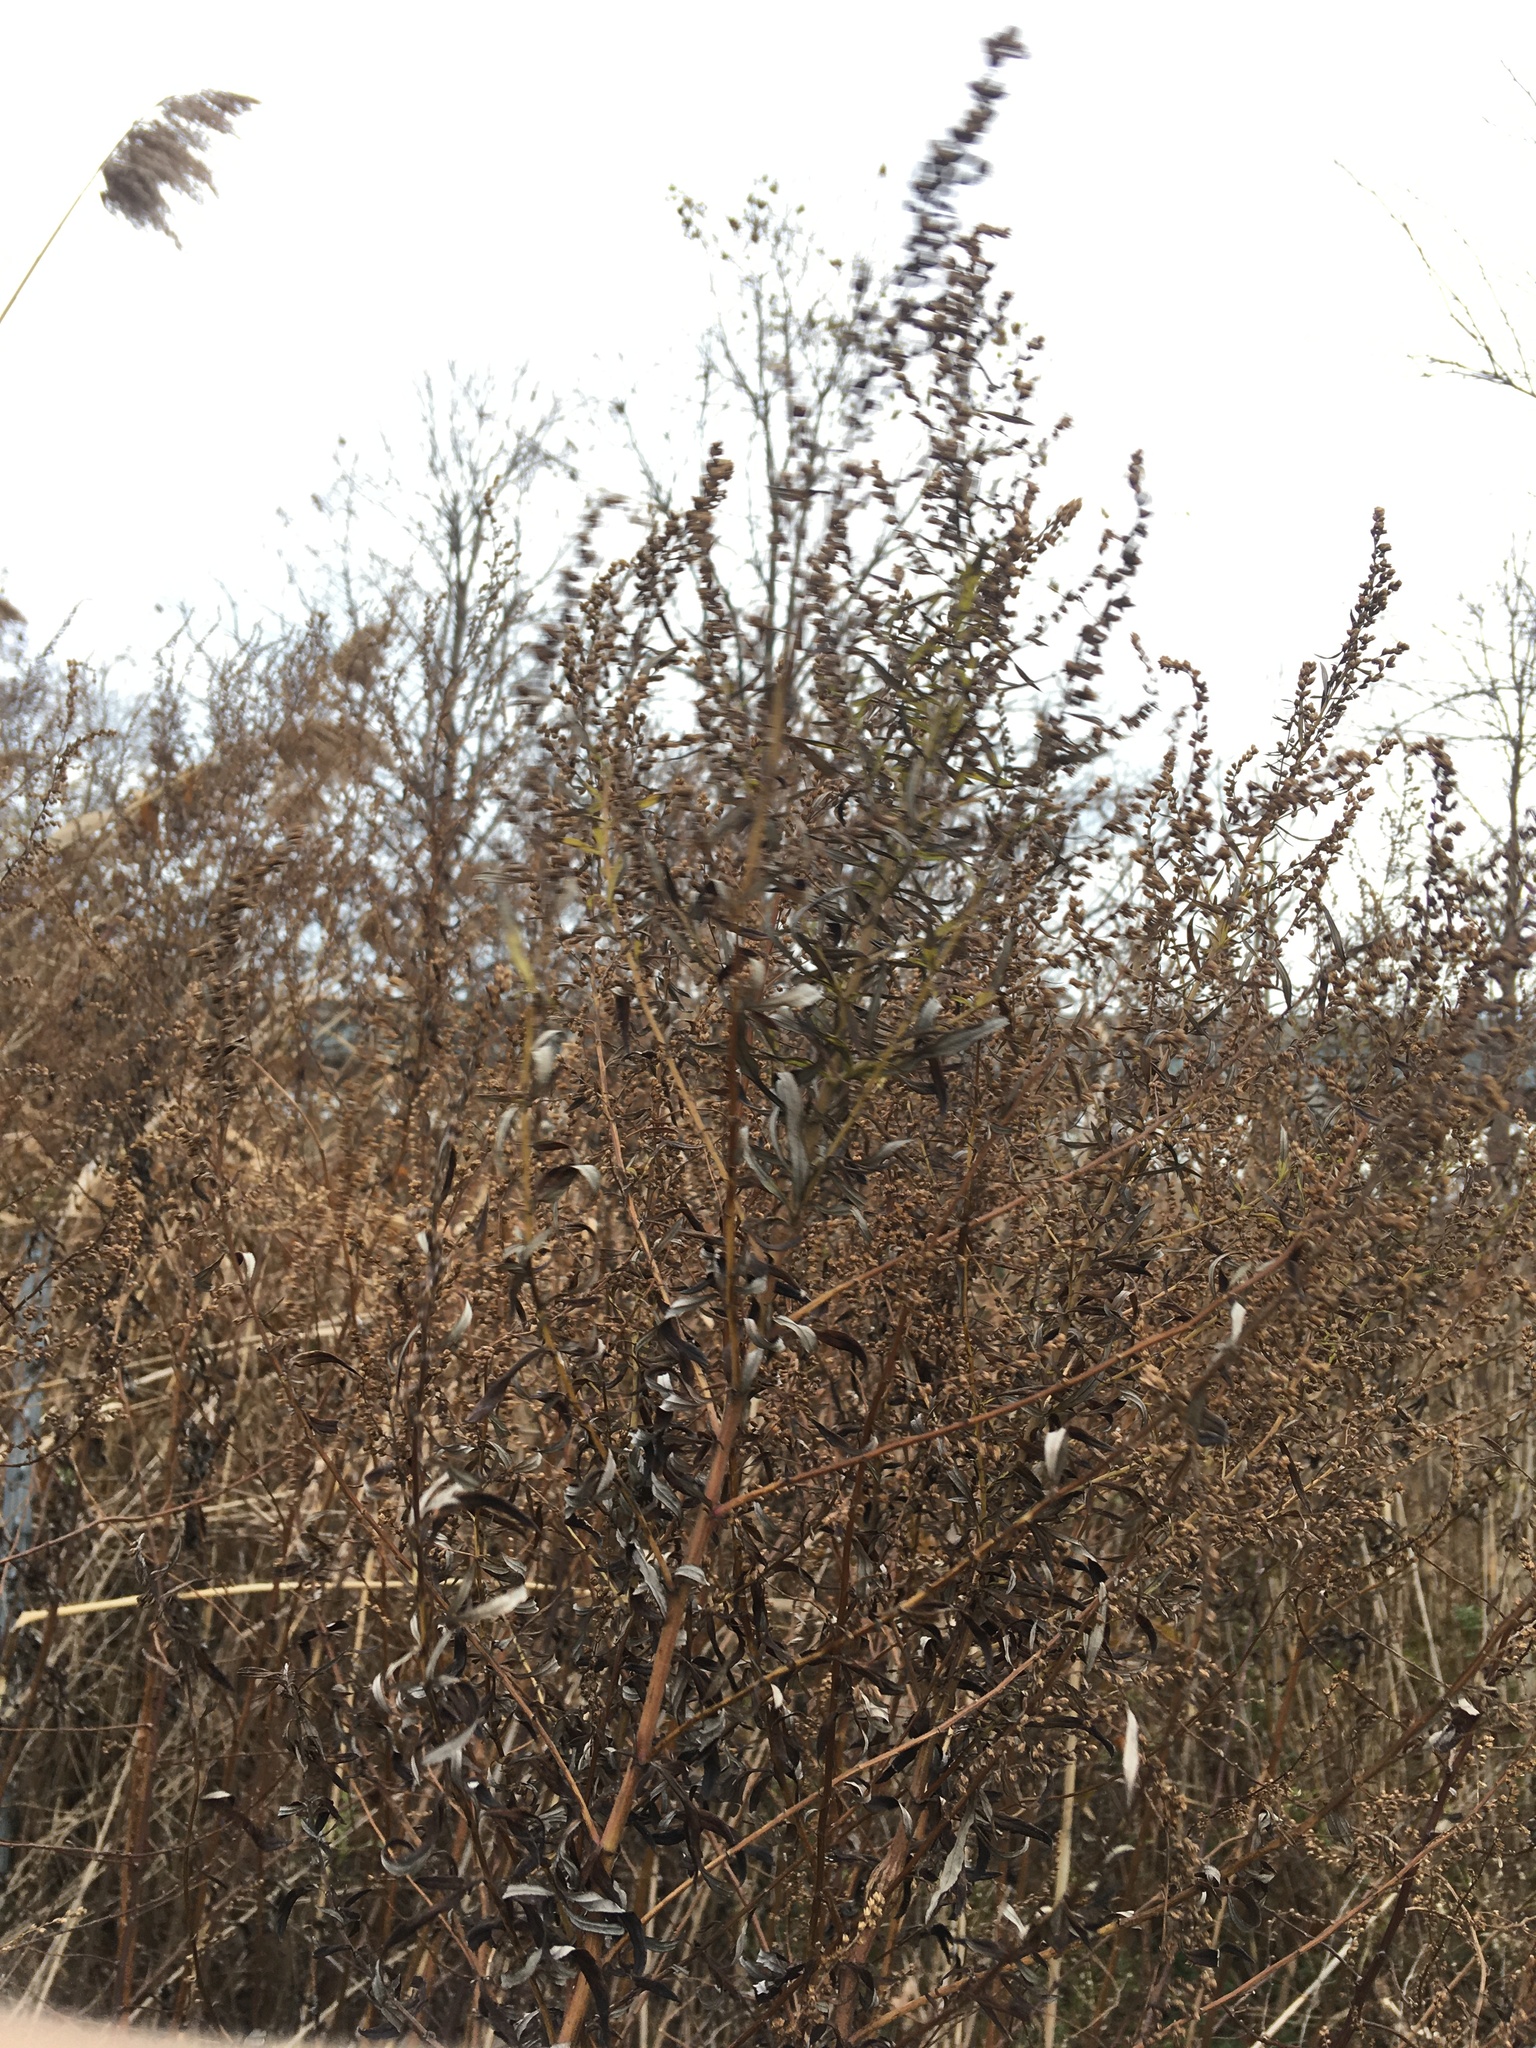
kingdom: Plantae
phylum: Tracheophyta
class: Magnoliopsida
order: Asterales
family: Asteraceae
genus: Artemisia
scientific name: Artemisia vulgaris
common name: Mugwort
